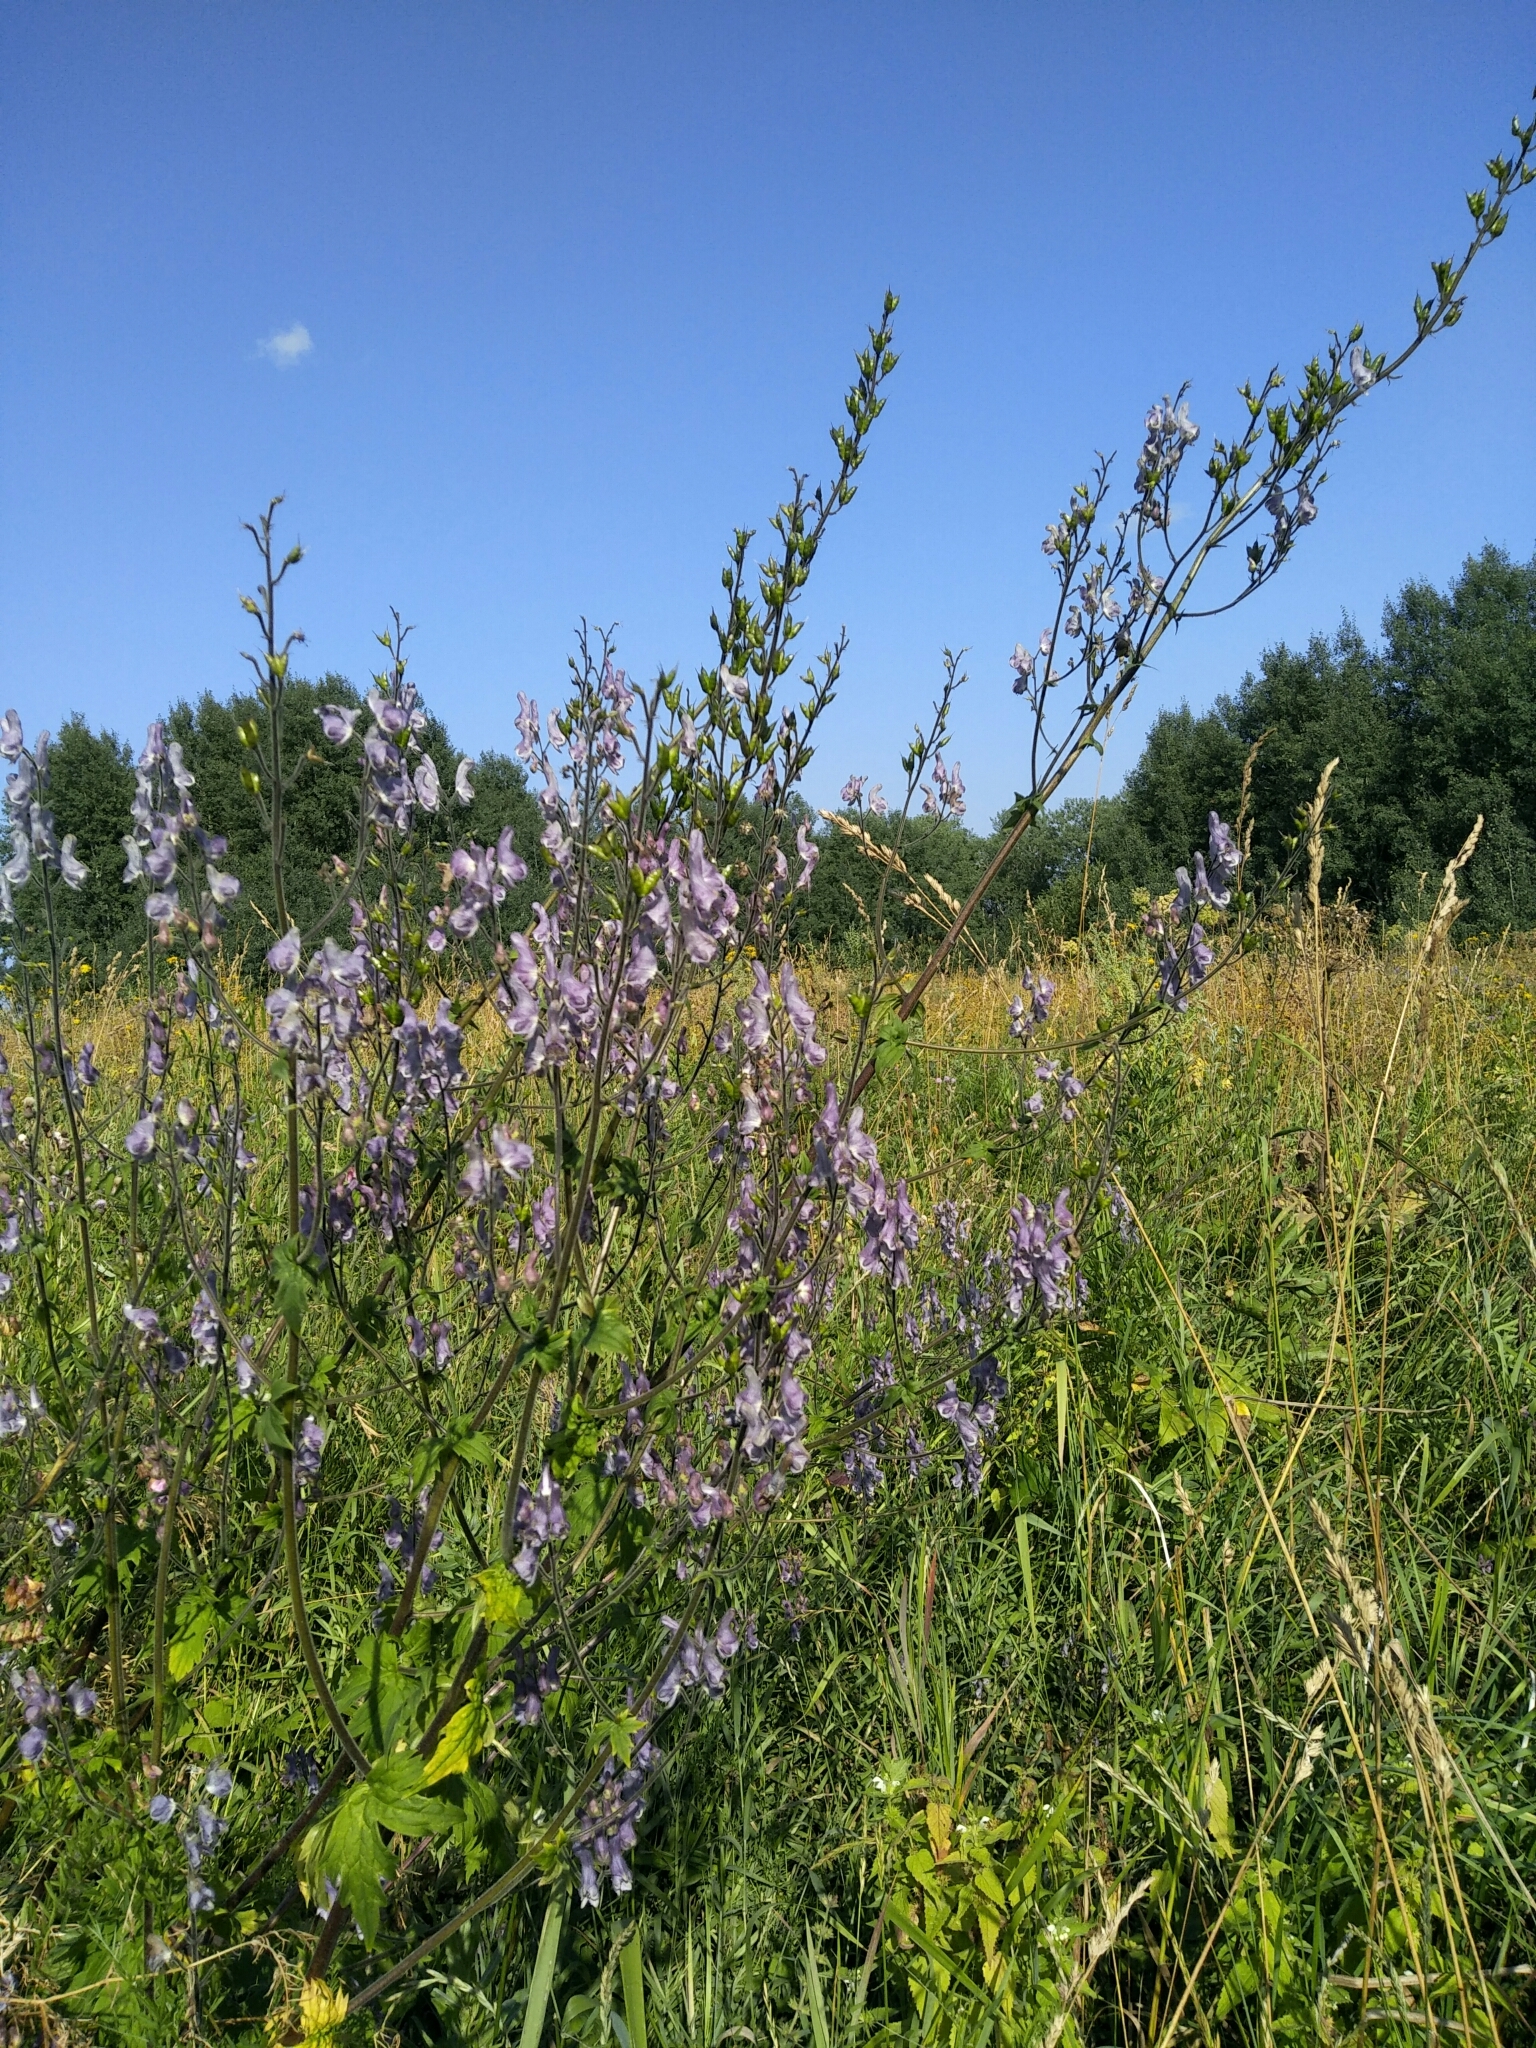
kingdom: Plantae
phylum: Tracheophyta
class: Magnoliopsida
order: Ranunculales
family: Ranunculaceae
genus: Aconitum
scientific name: Aconitum septentrionale
